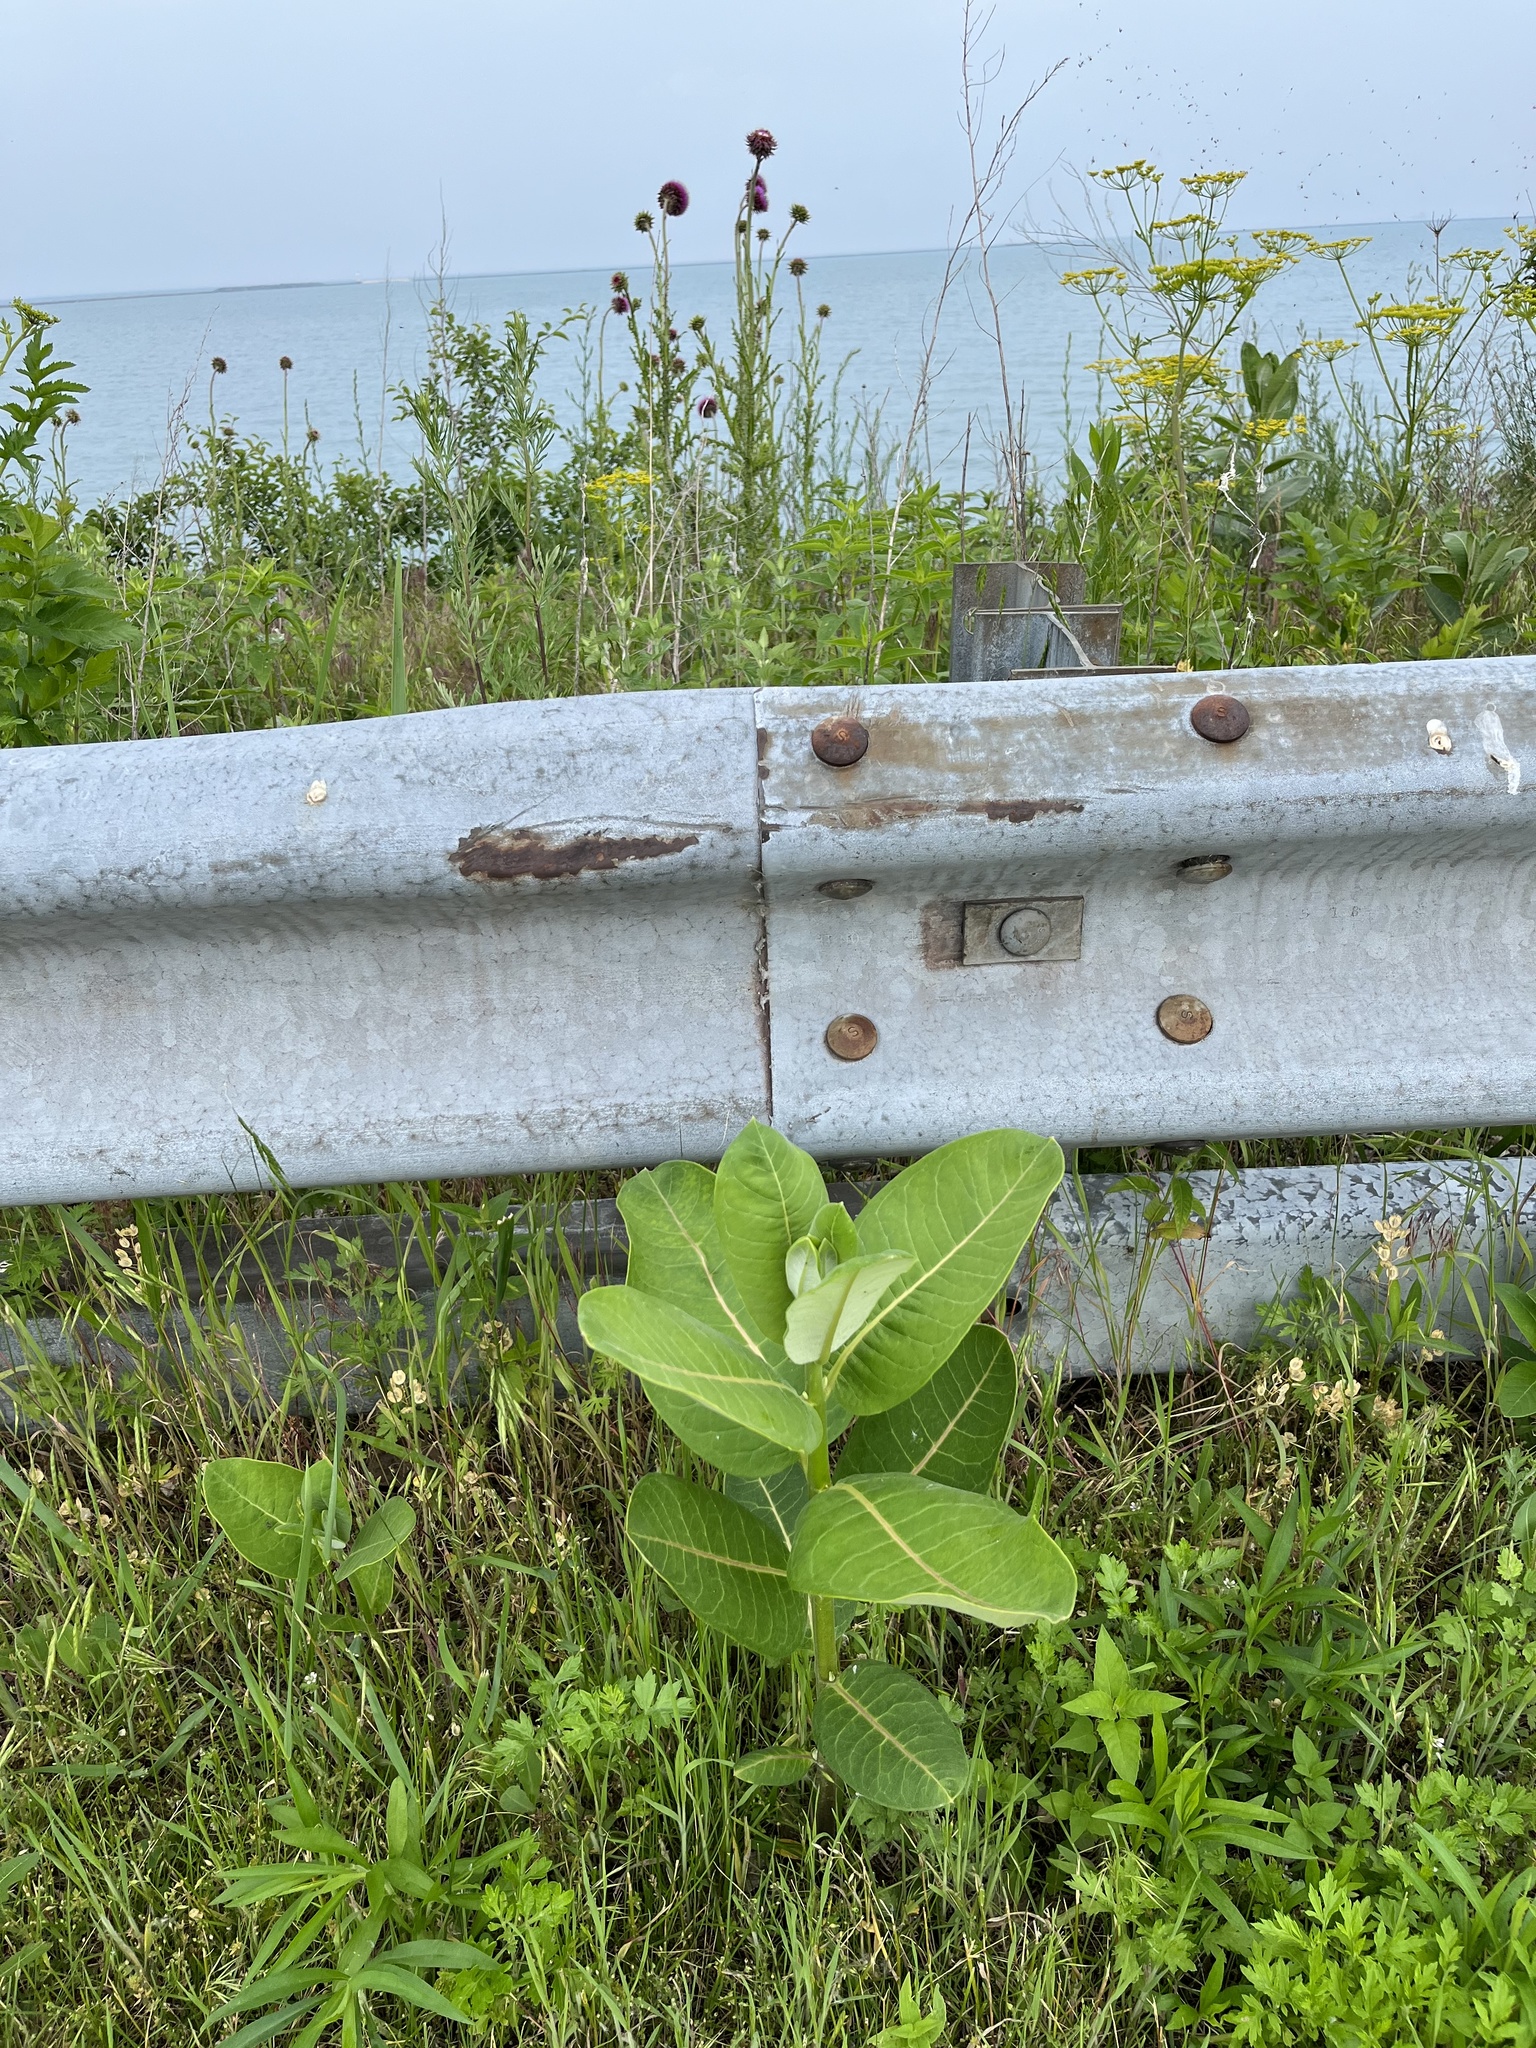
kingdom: Plantae
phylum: Tracheophyta
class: Magnoliopsida
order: Gentianales
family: Apocynaceae
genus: Asclepias
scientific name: Asclepias syriaca
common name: Common milkweed
